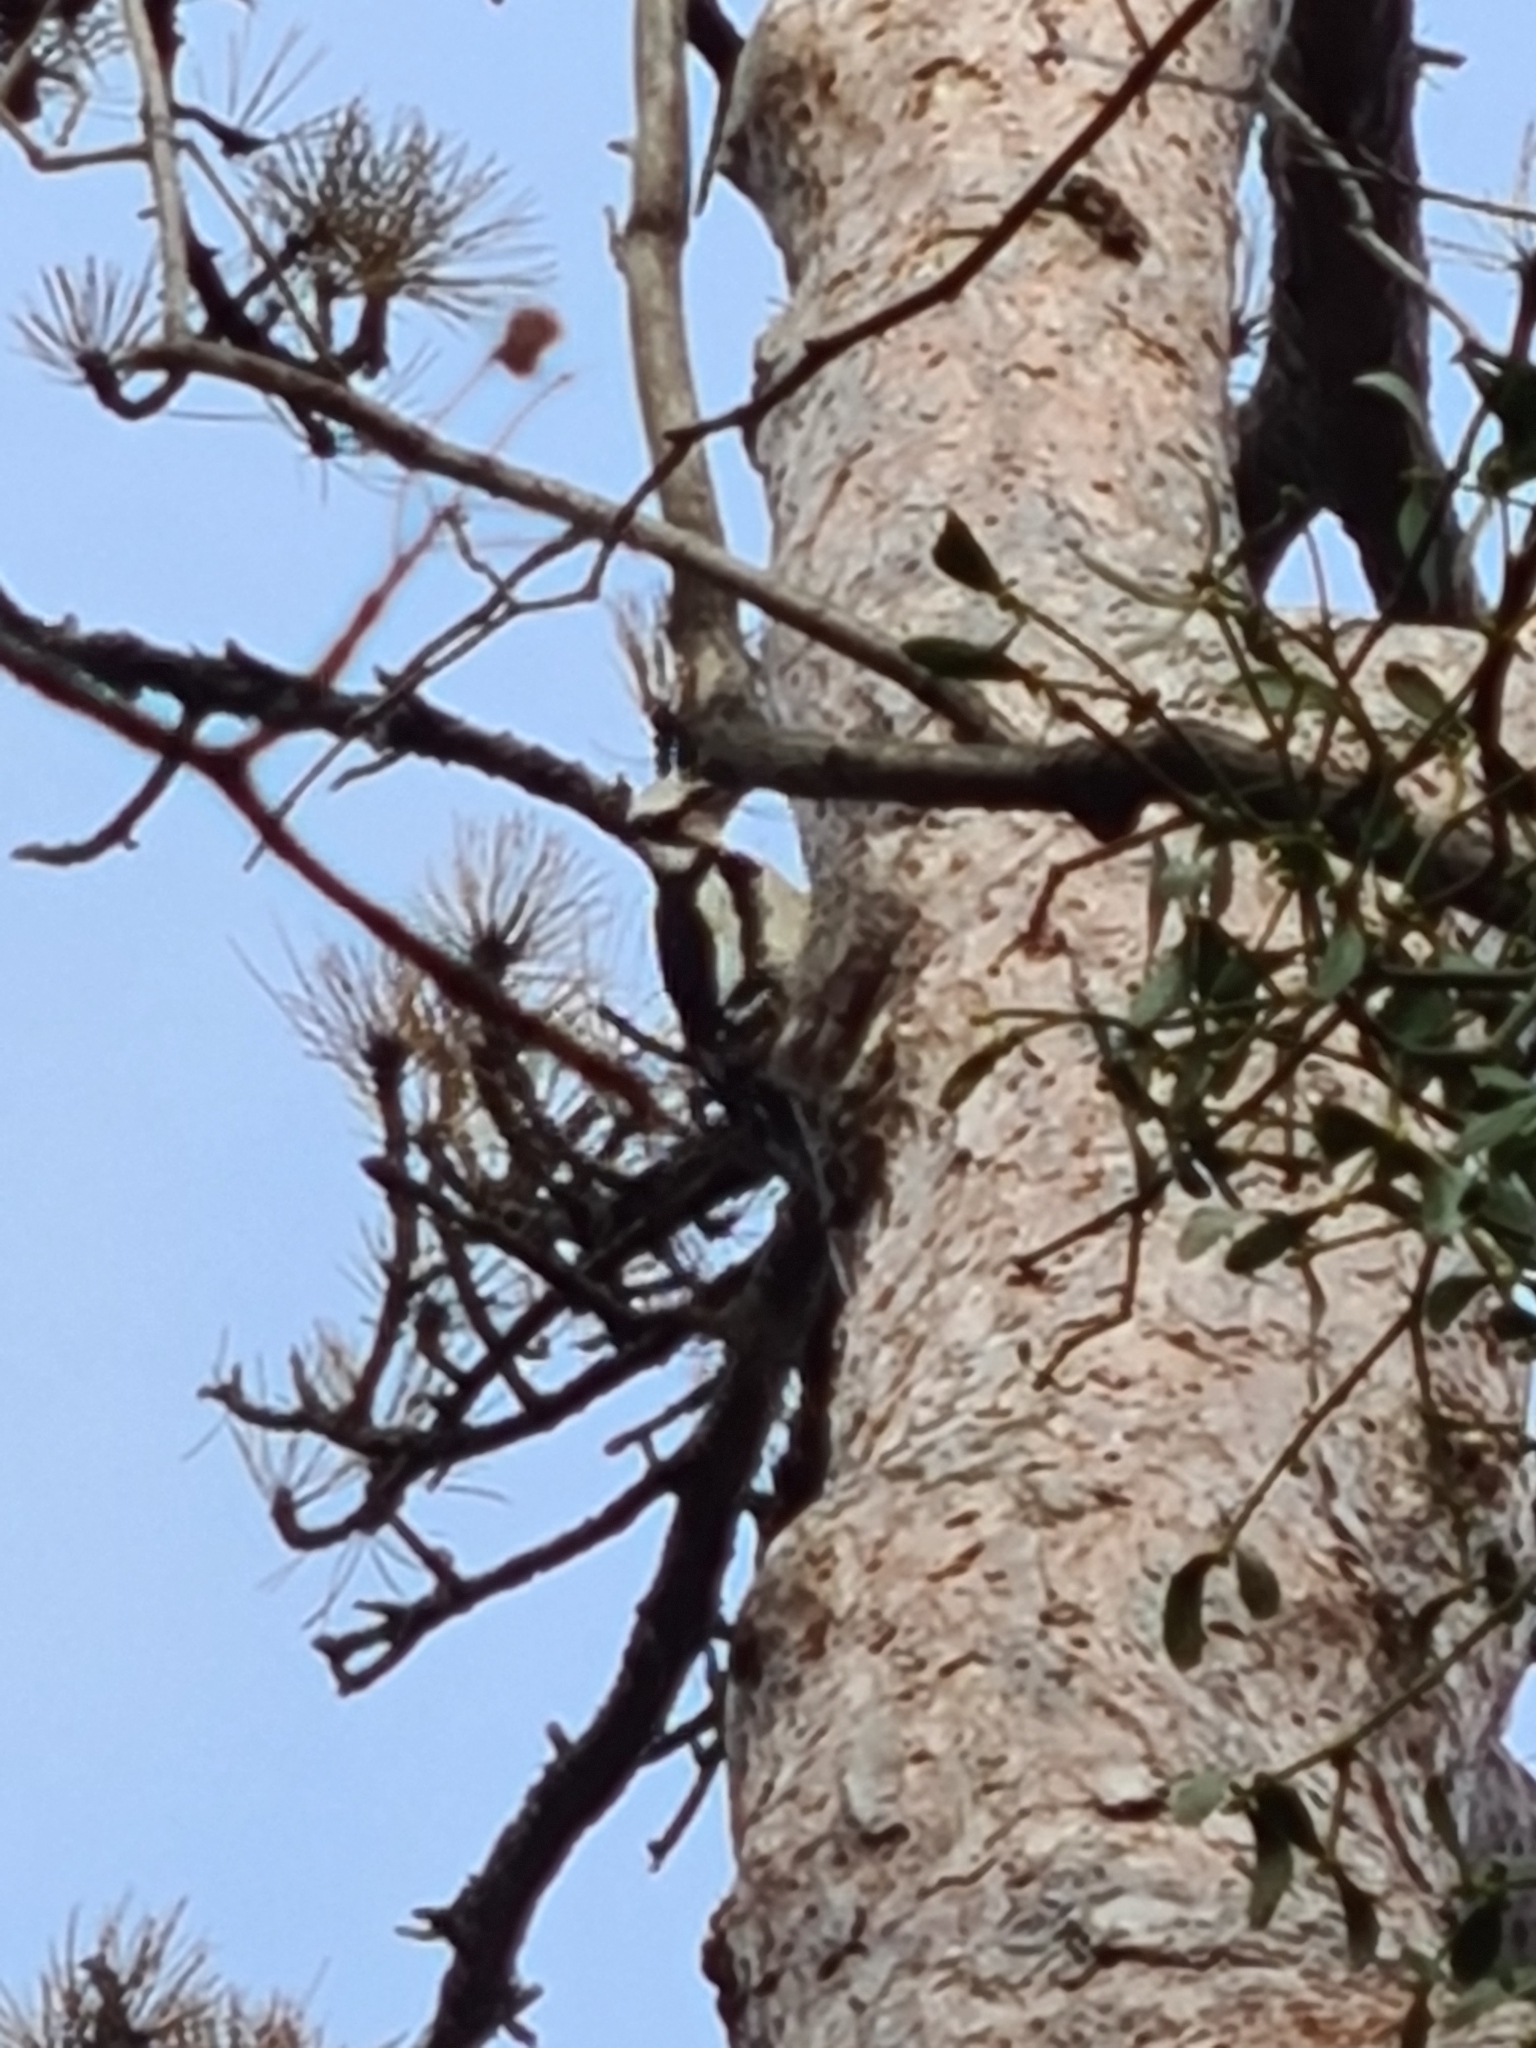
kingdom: Animalia
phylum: Chordata
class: Aves
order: Piciformes
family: Picidae
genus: Dendrocopos
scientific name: Dendrocopos major
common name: Great spotted woodpecker
